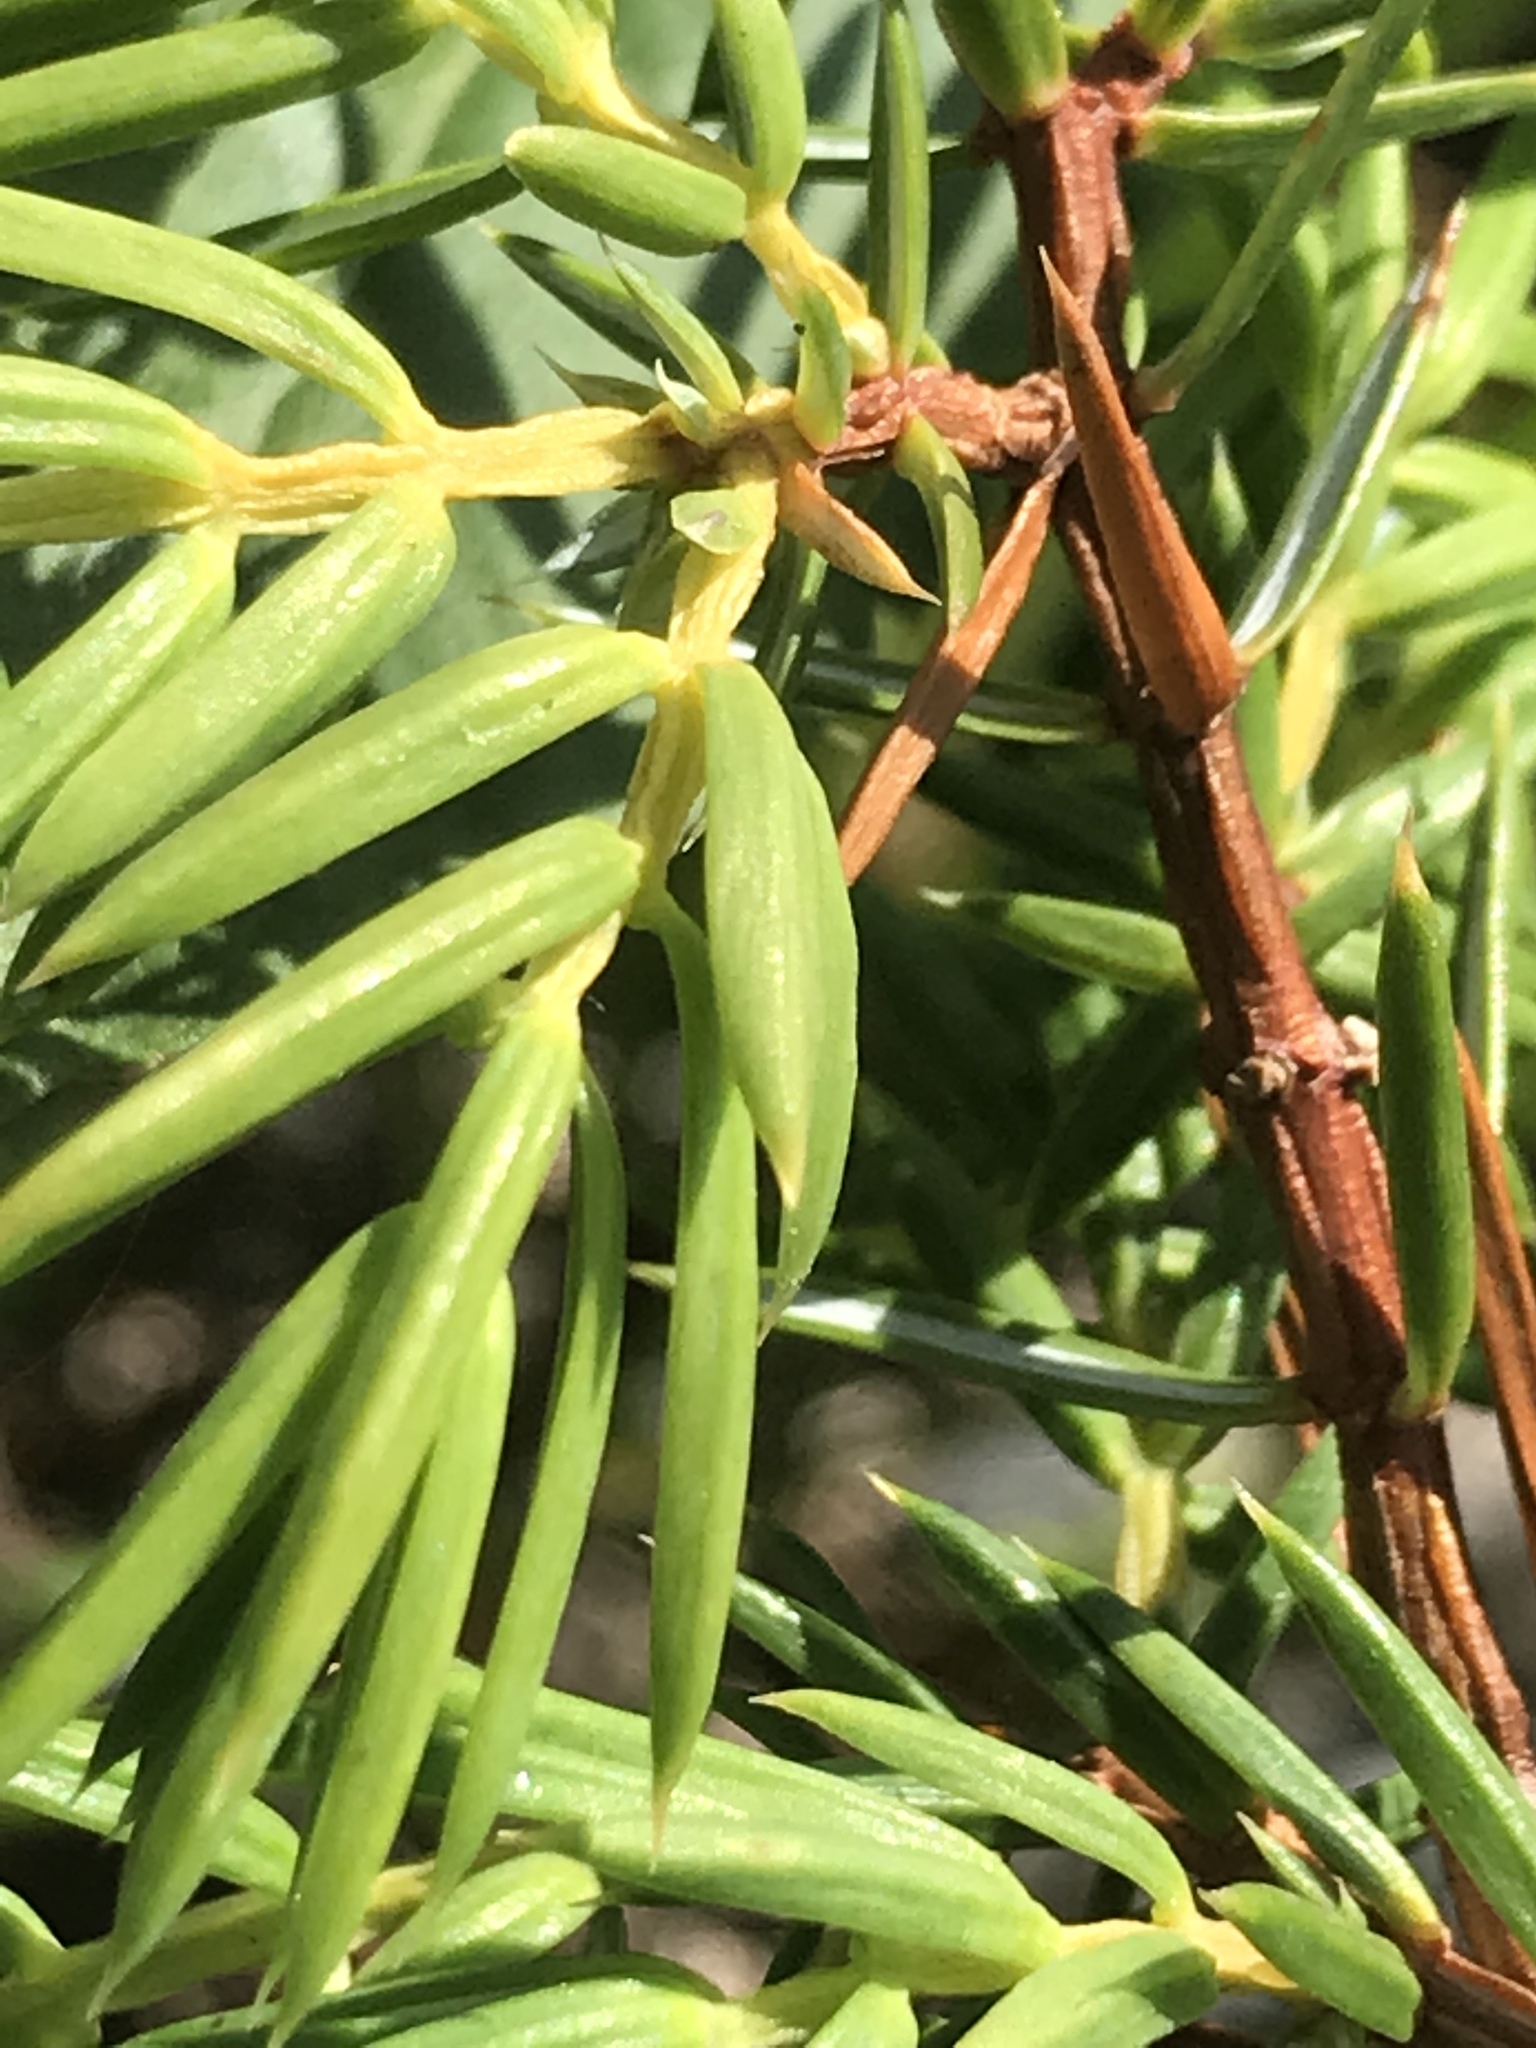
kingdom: Plantae
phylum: Tracheophyta
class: Pinopsida
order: Pinales
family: Cupressaceae
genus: Juniperus
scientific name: Juniperus communis
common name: Common juniper
